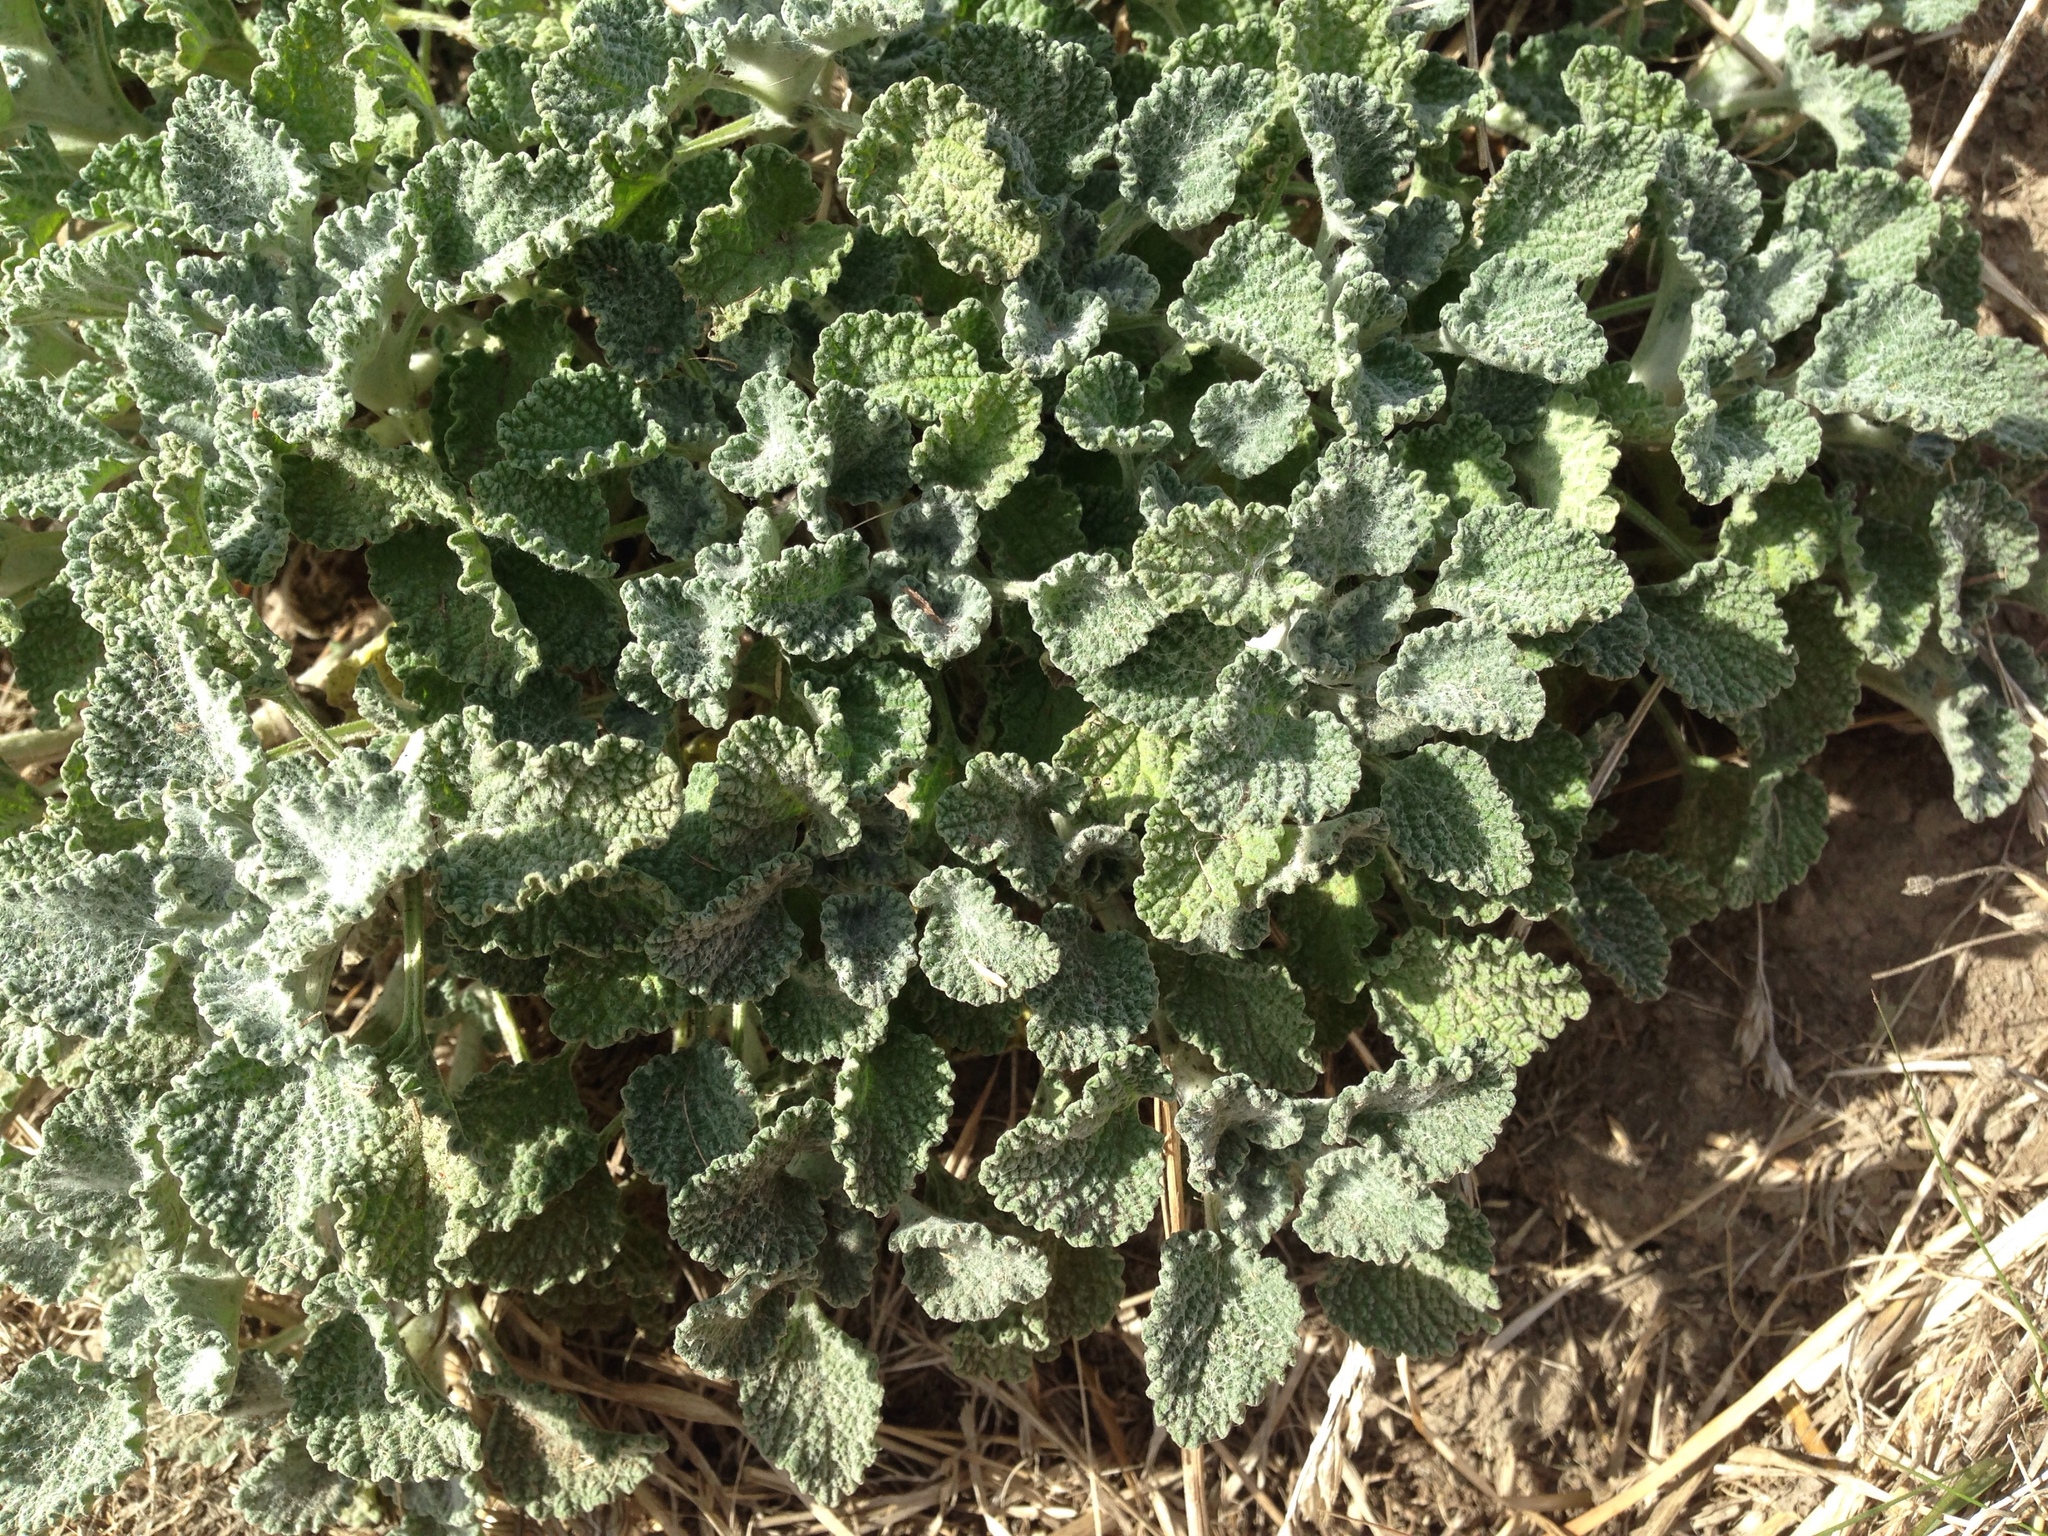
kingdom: Plantae
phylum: Tracheophyta
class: Magnoliopsida
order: Lamiales
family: Lamiaceae
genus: Marrubium
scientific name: Marrubium vulgare
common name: Horehound
